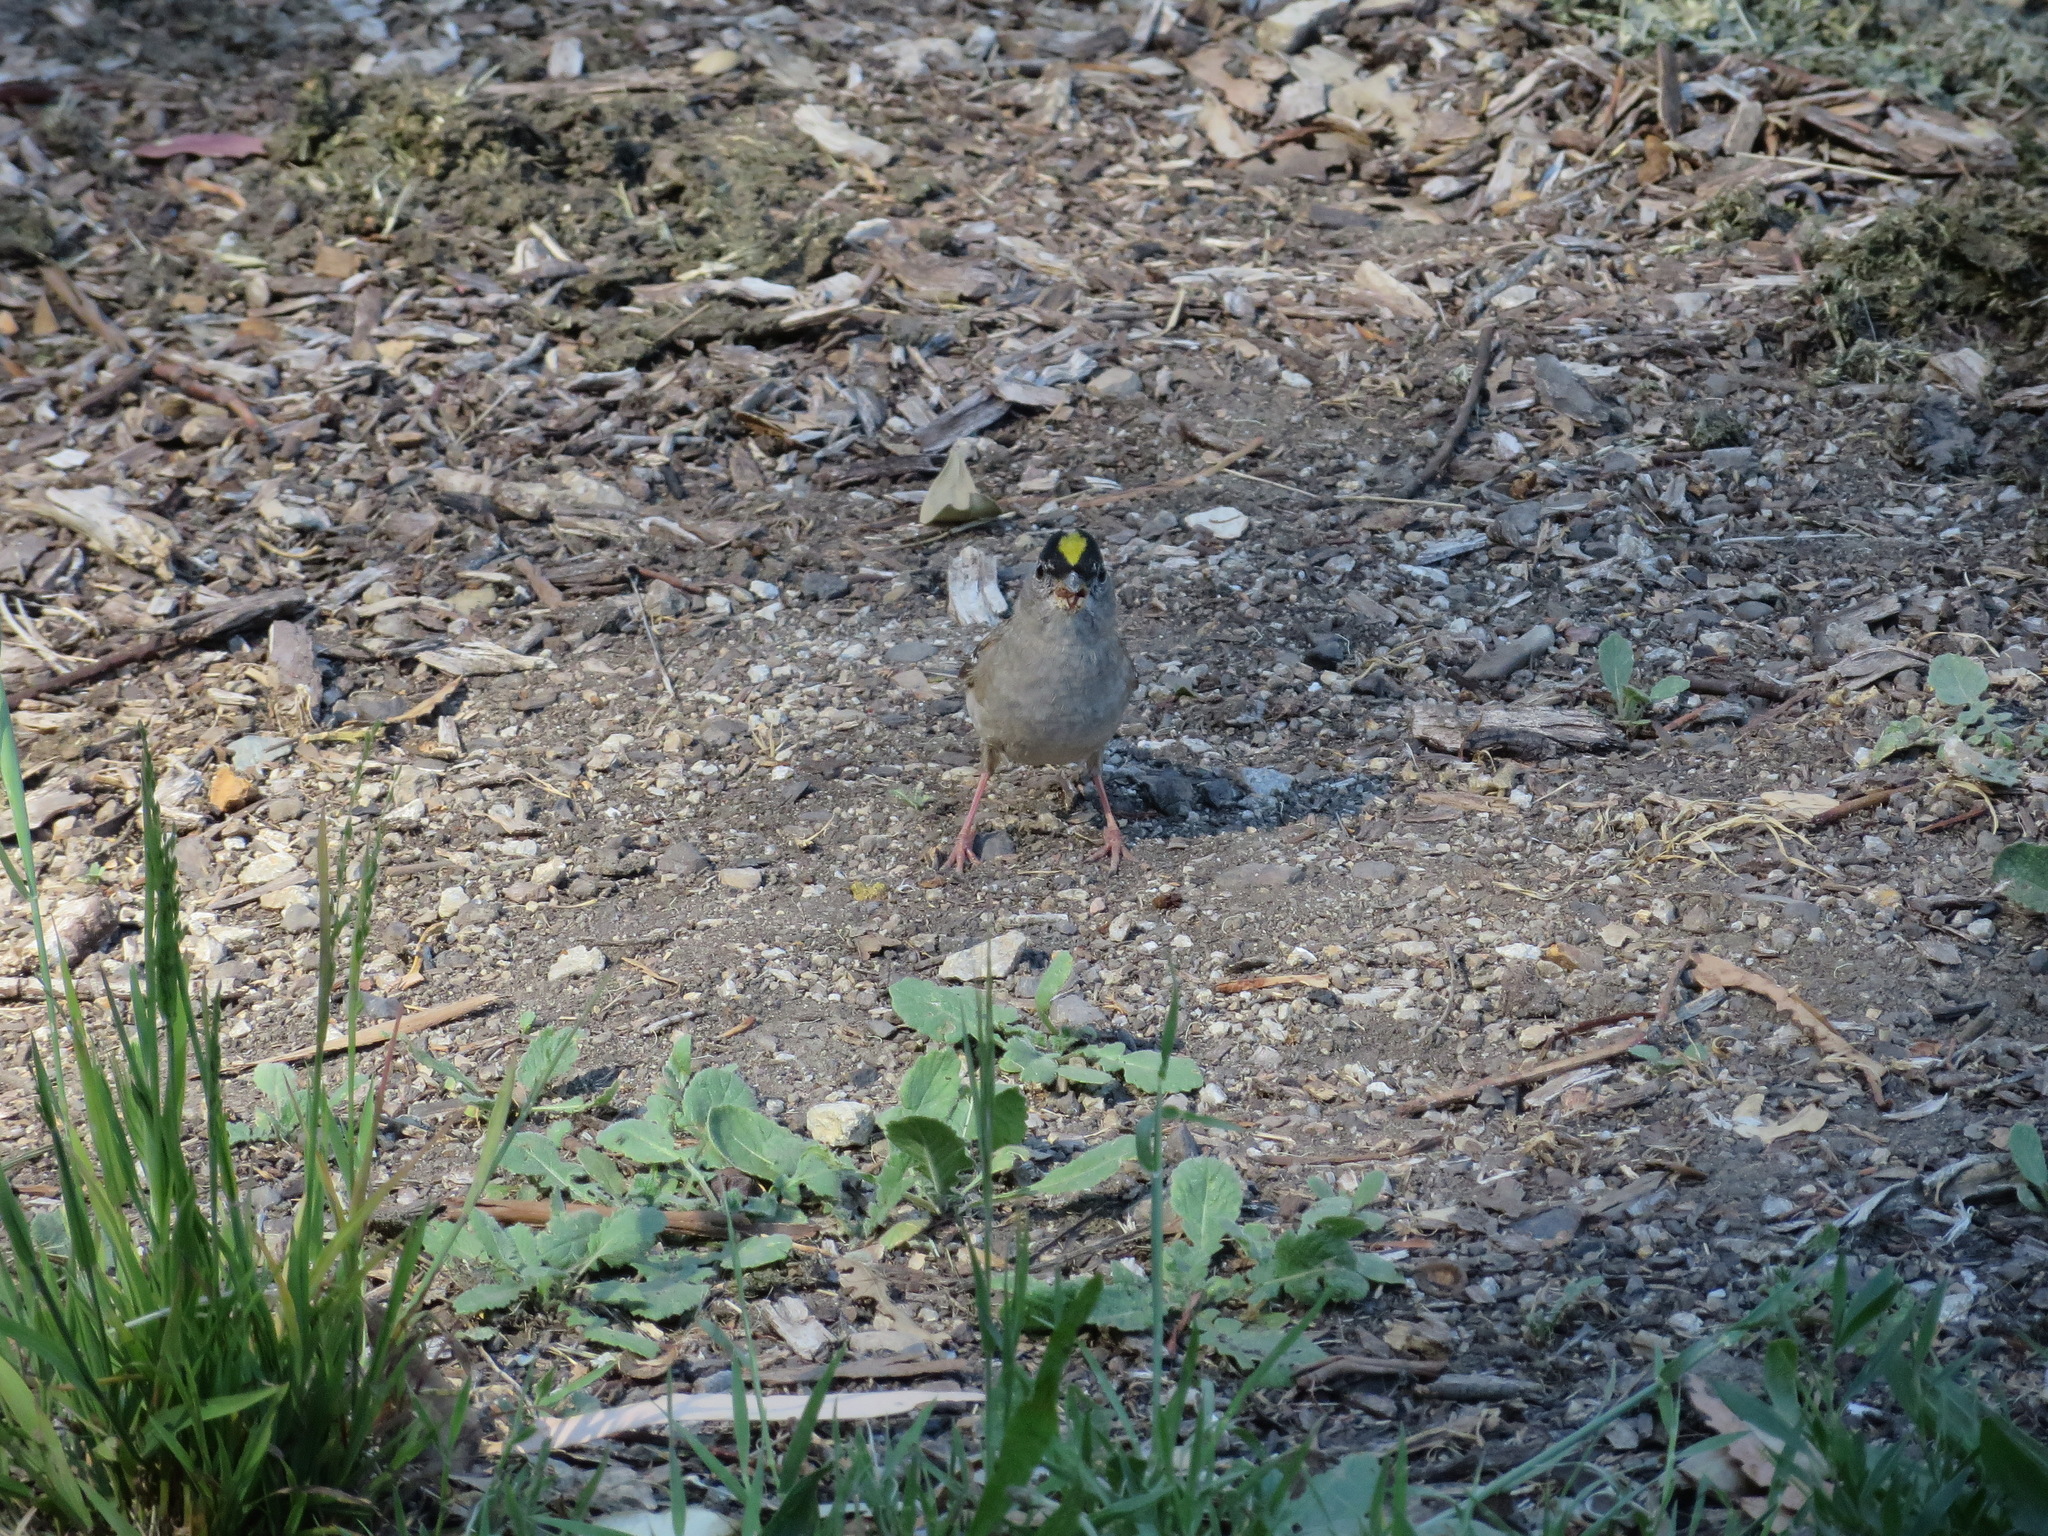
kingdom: Animalia
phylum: Chordata
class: Aves
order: Passeriformes
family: Passerellidae
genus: Zonotrichia
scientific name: Zonotrichia atricapilla
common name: Golden-crowned sparrow
